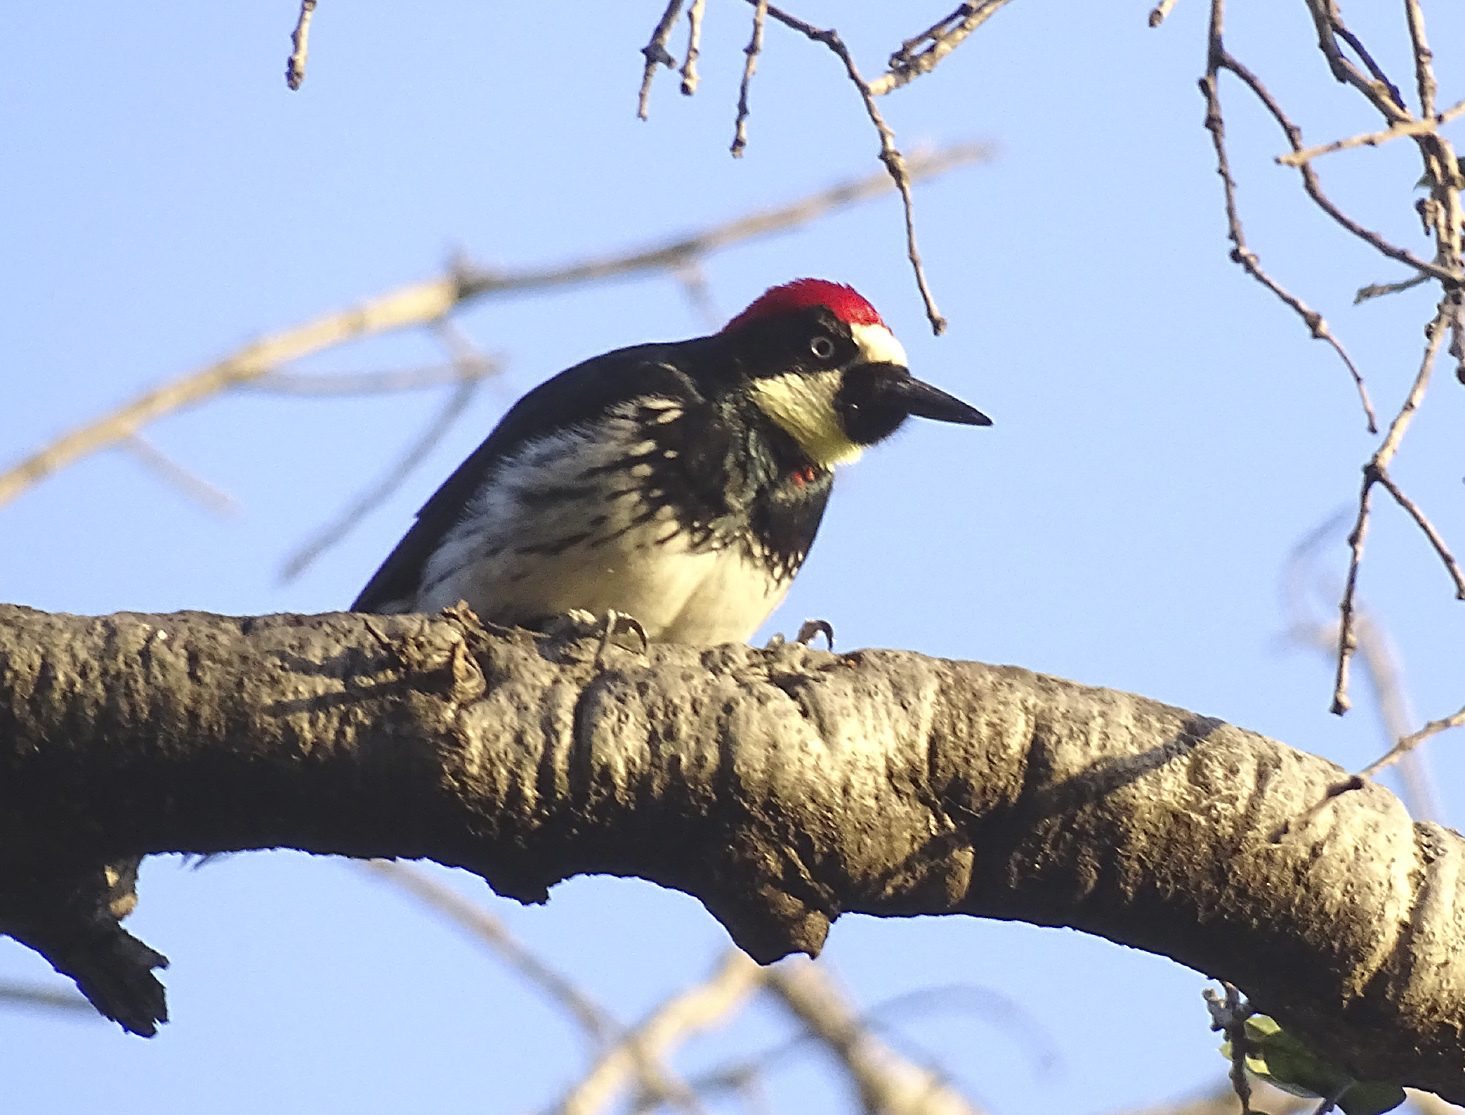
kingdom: Animalia
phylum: Chordata
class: Aves
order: Piciformes
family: Picidae
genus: Melanerpes
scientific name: Melanerpes formicivorus
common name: Acorn woodpecker
